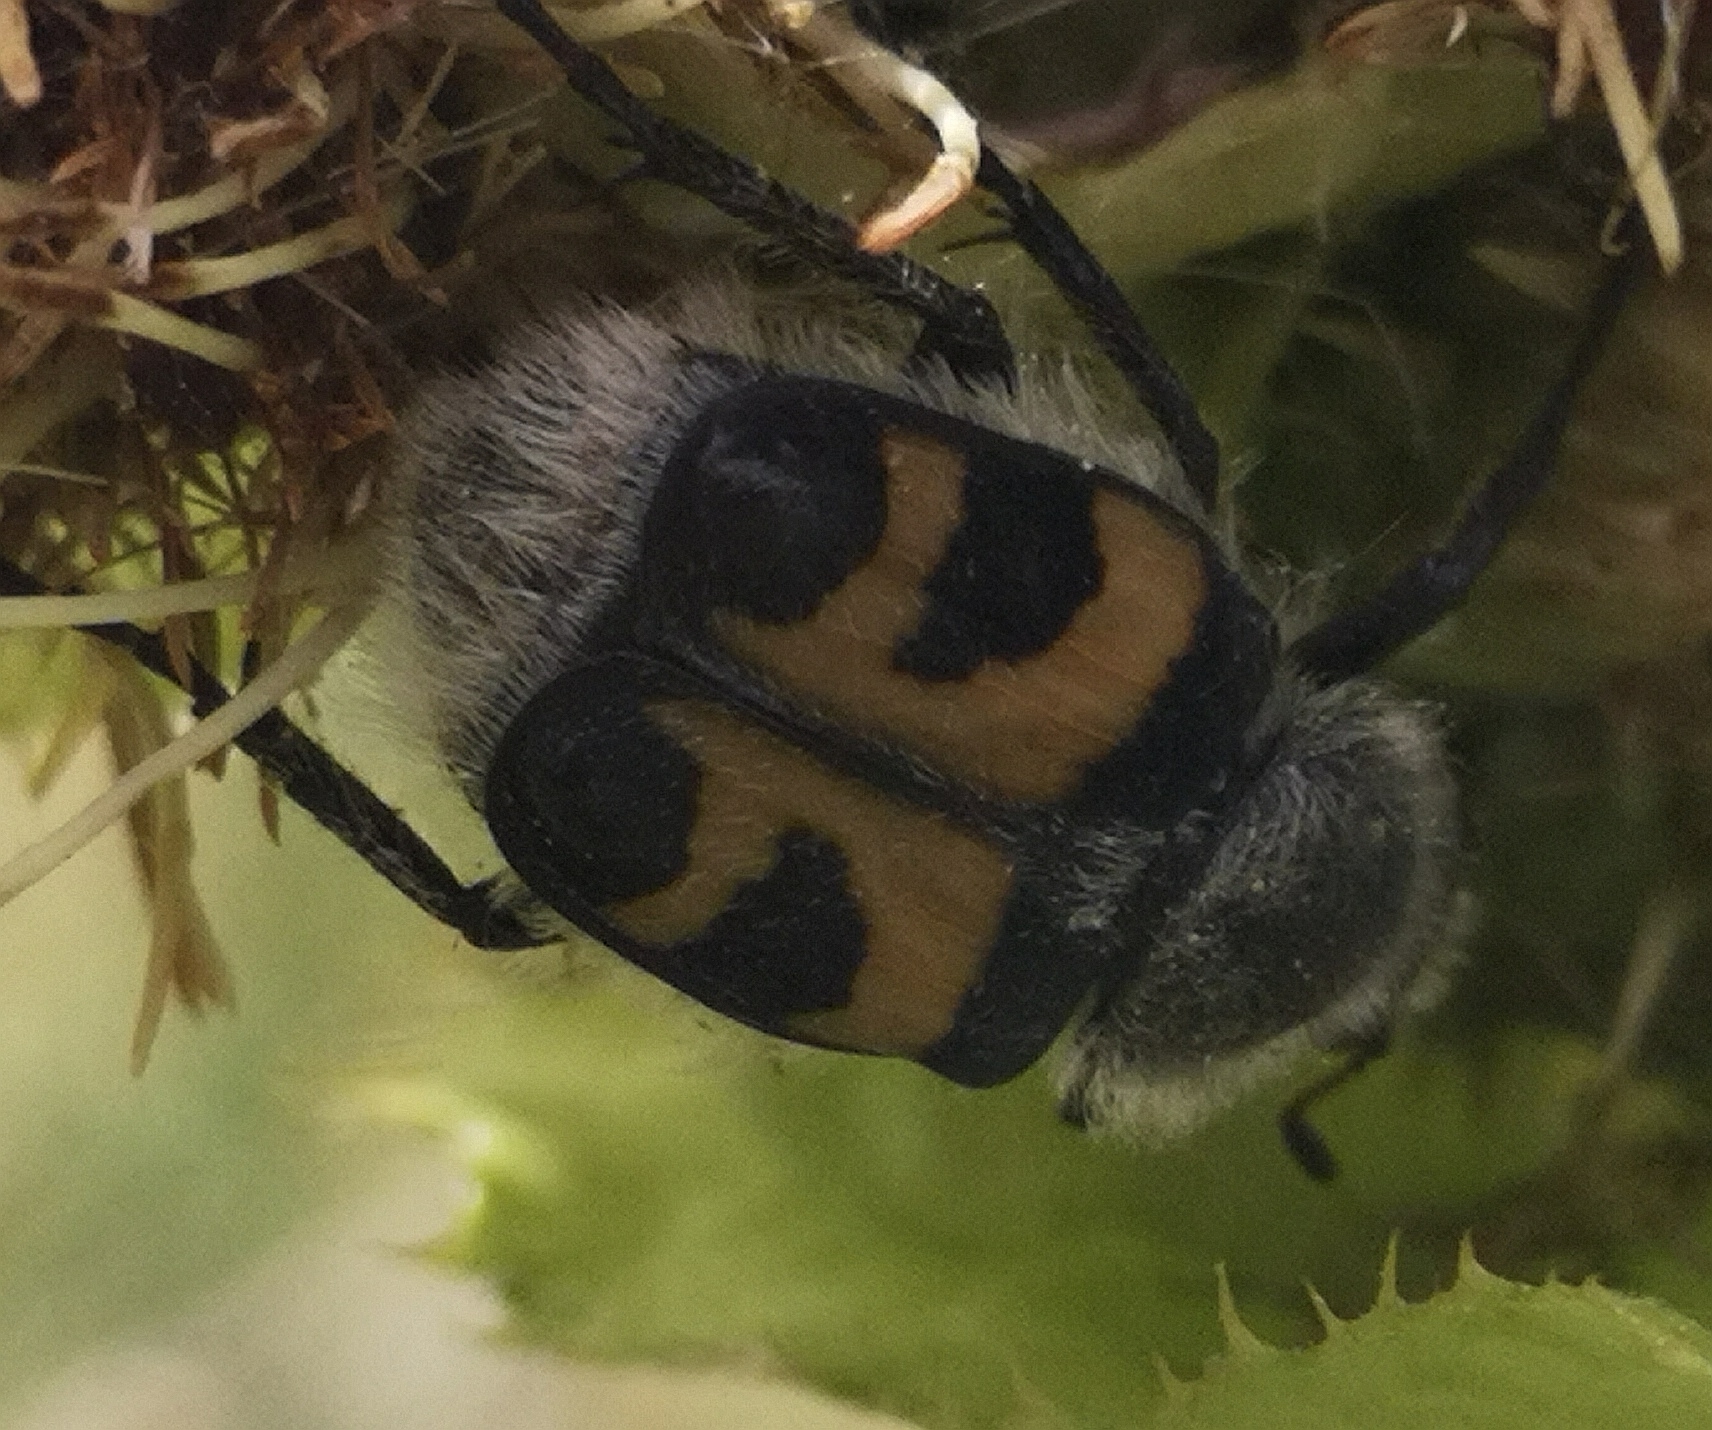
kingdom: Animalia
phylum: Arthropoda
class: Insecta
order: Coleoptera
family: Scarabaeidae
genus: Trichius
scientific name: Trichius fasciatus
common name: Bee beetle
